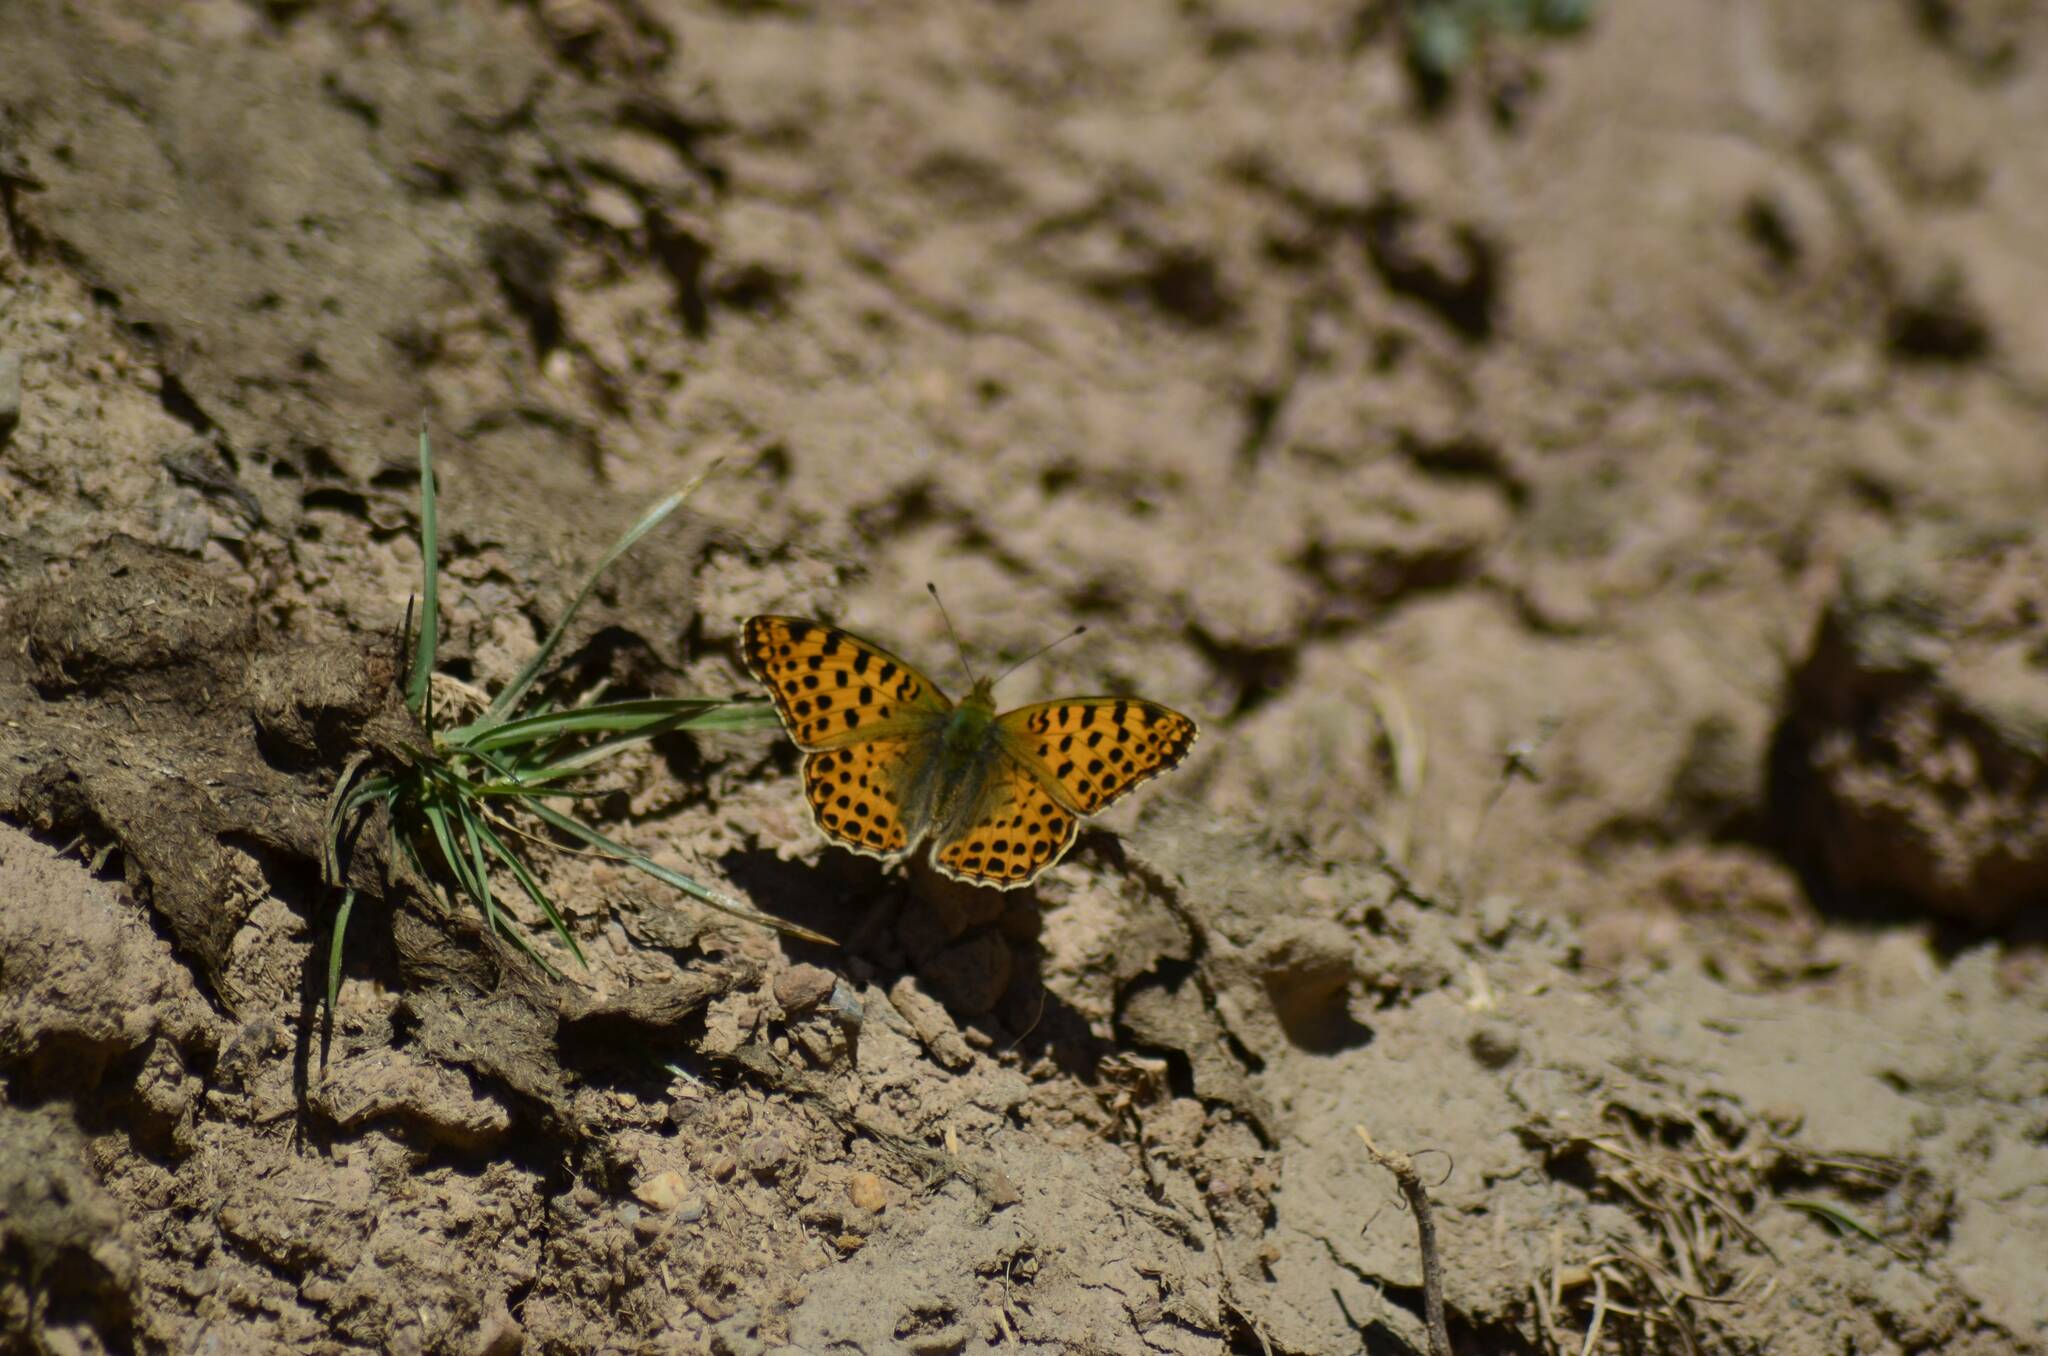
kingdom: Animalia
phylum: Arthropoda
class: Insecta
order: Lepidoptera
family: Nymphalidae
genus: Issoria
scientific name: Issoria lathonia
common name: Queen of spain fritillary
